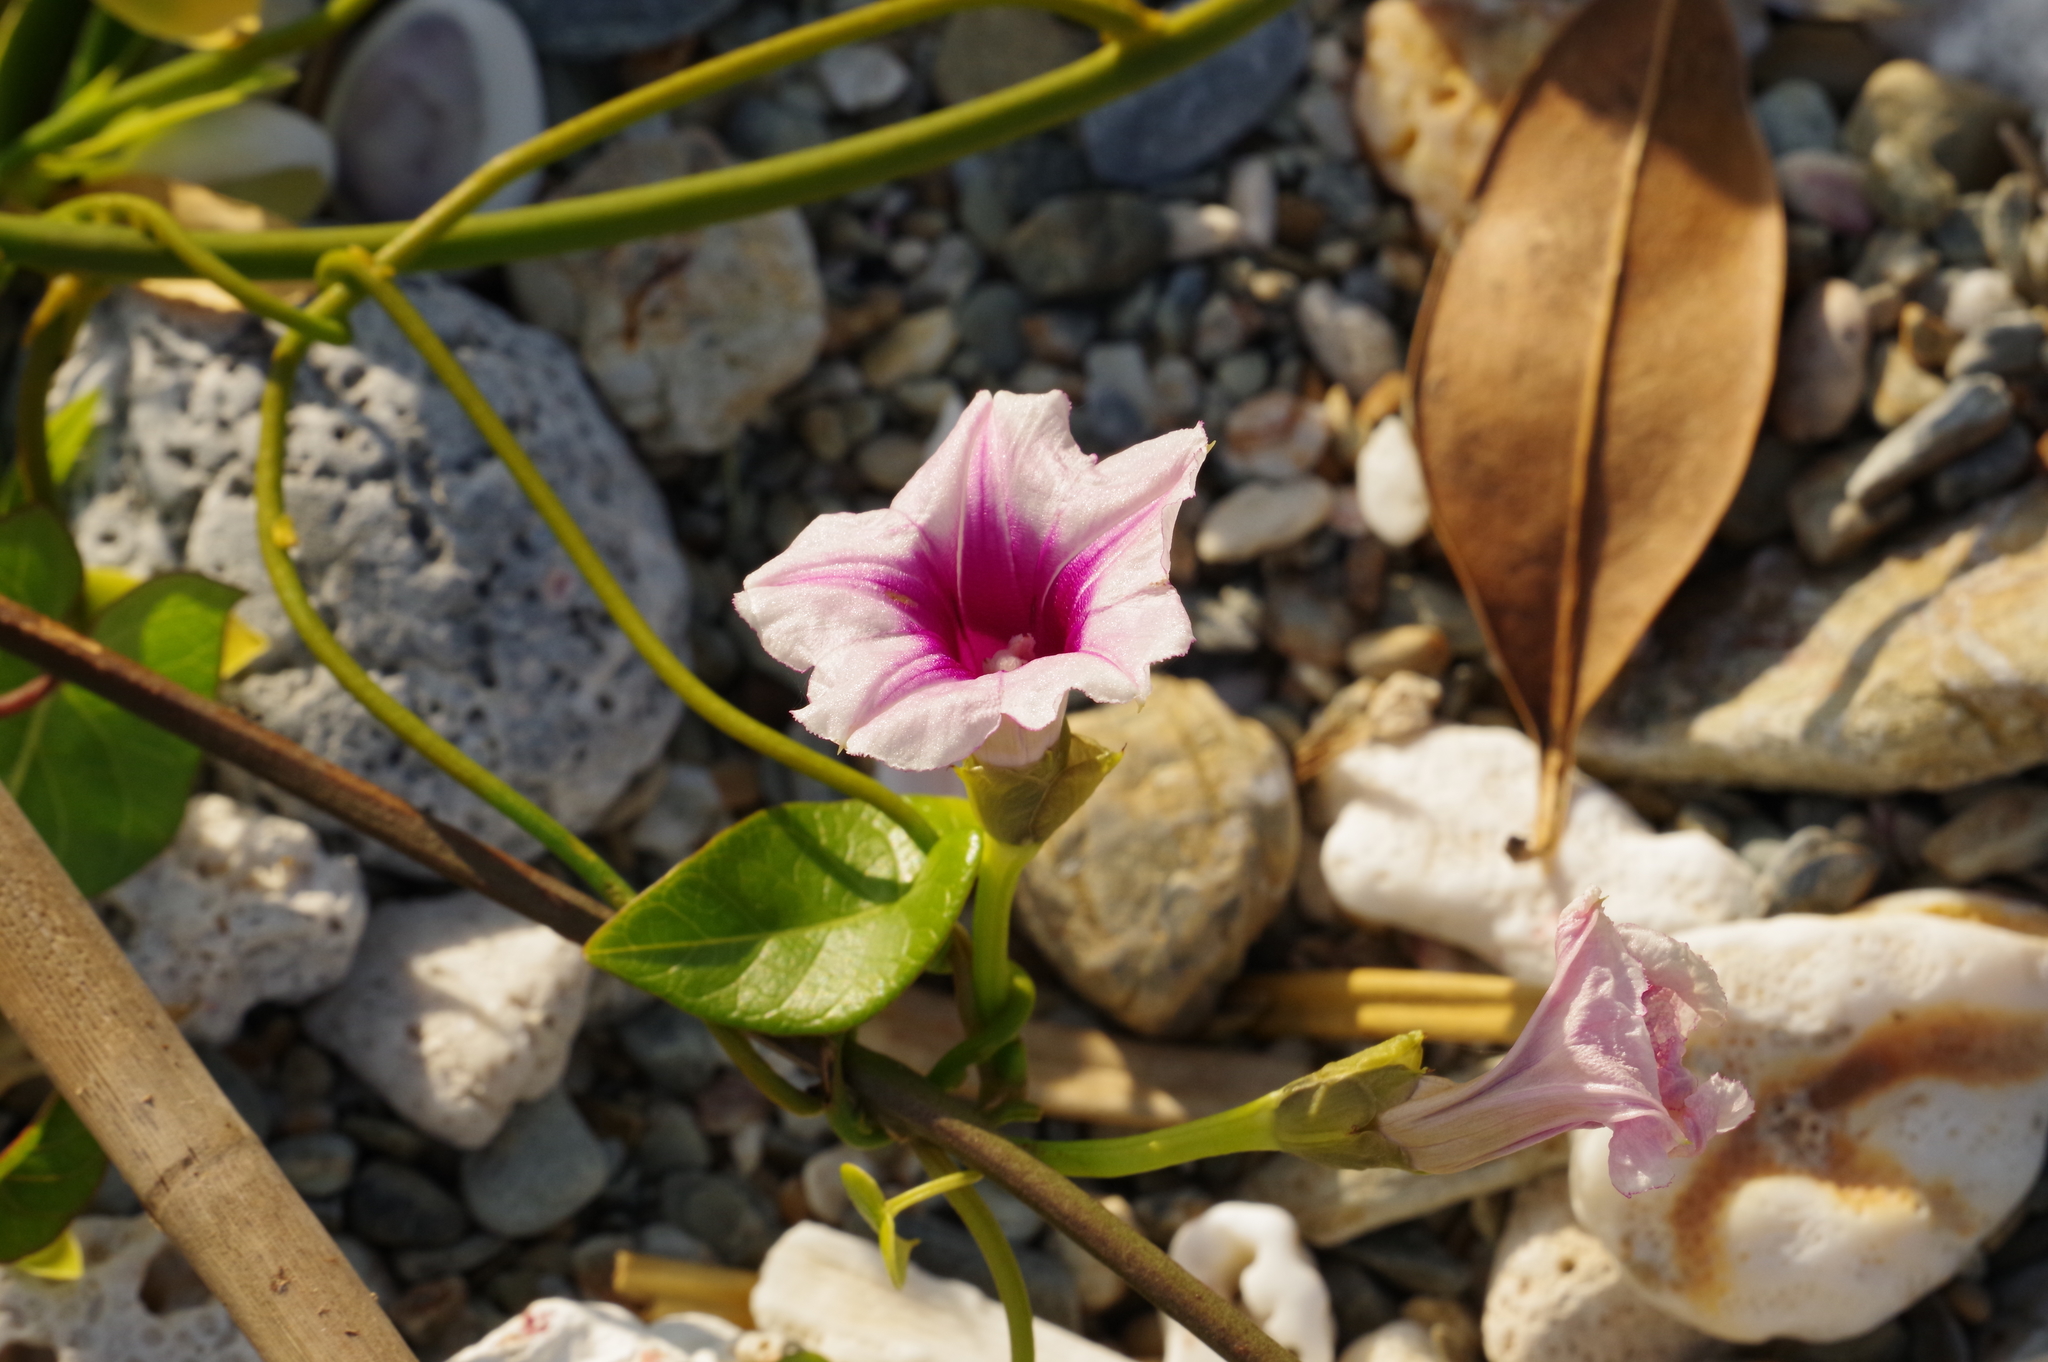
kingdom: Plantae
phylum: Tracheophyta
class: Magnoliopsida
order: Solanales
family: Convolvulaceae
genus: Ipomoea
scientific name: Ipomoea littoralis
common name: Coastal morning glory
